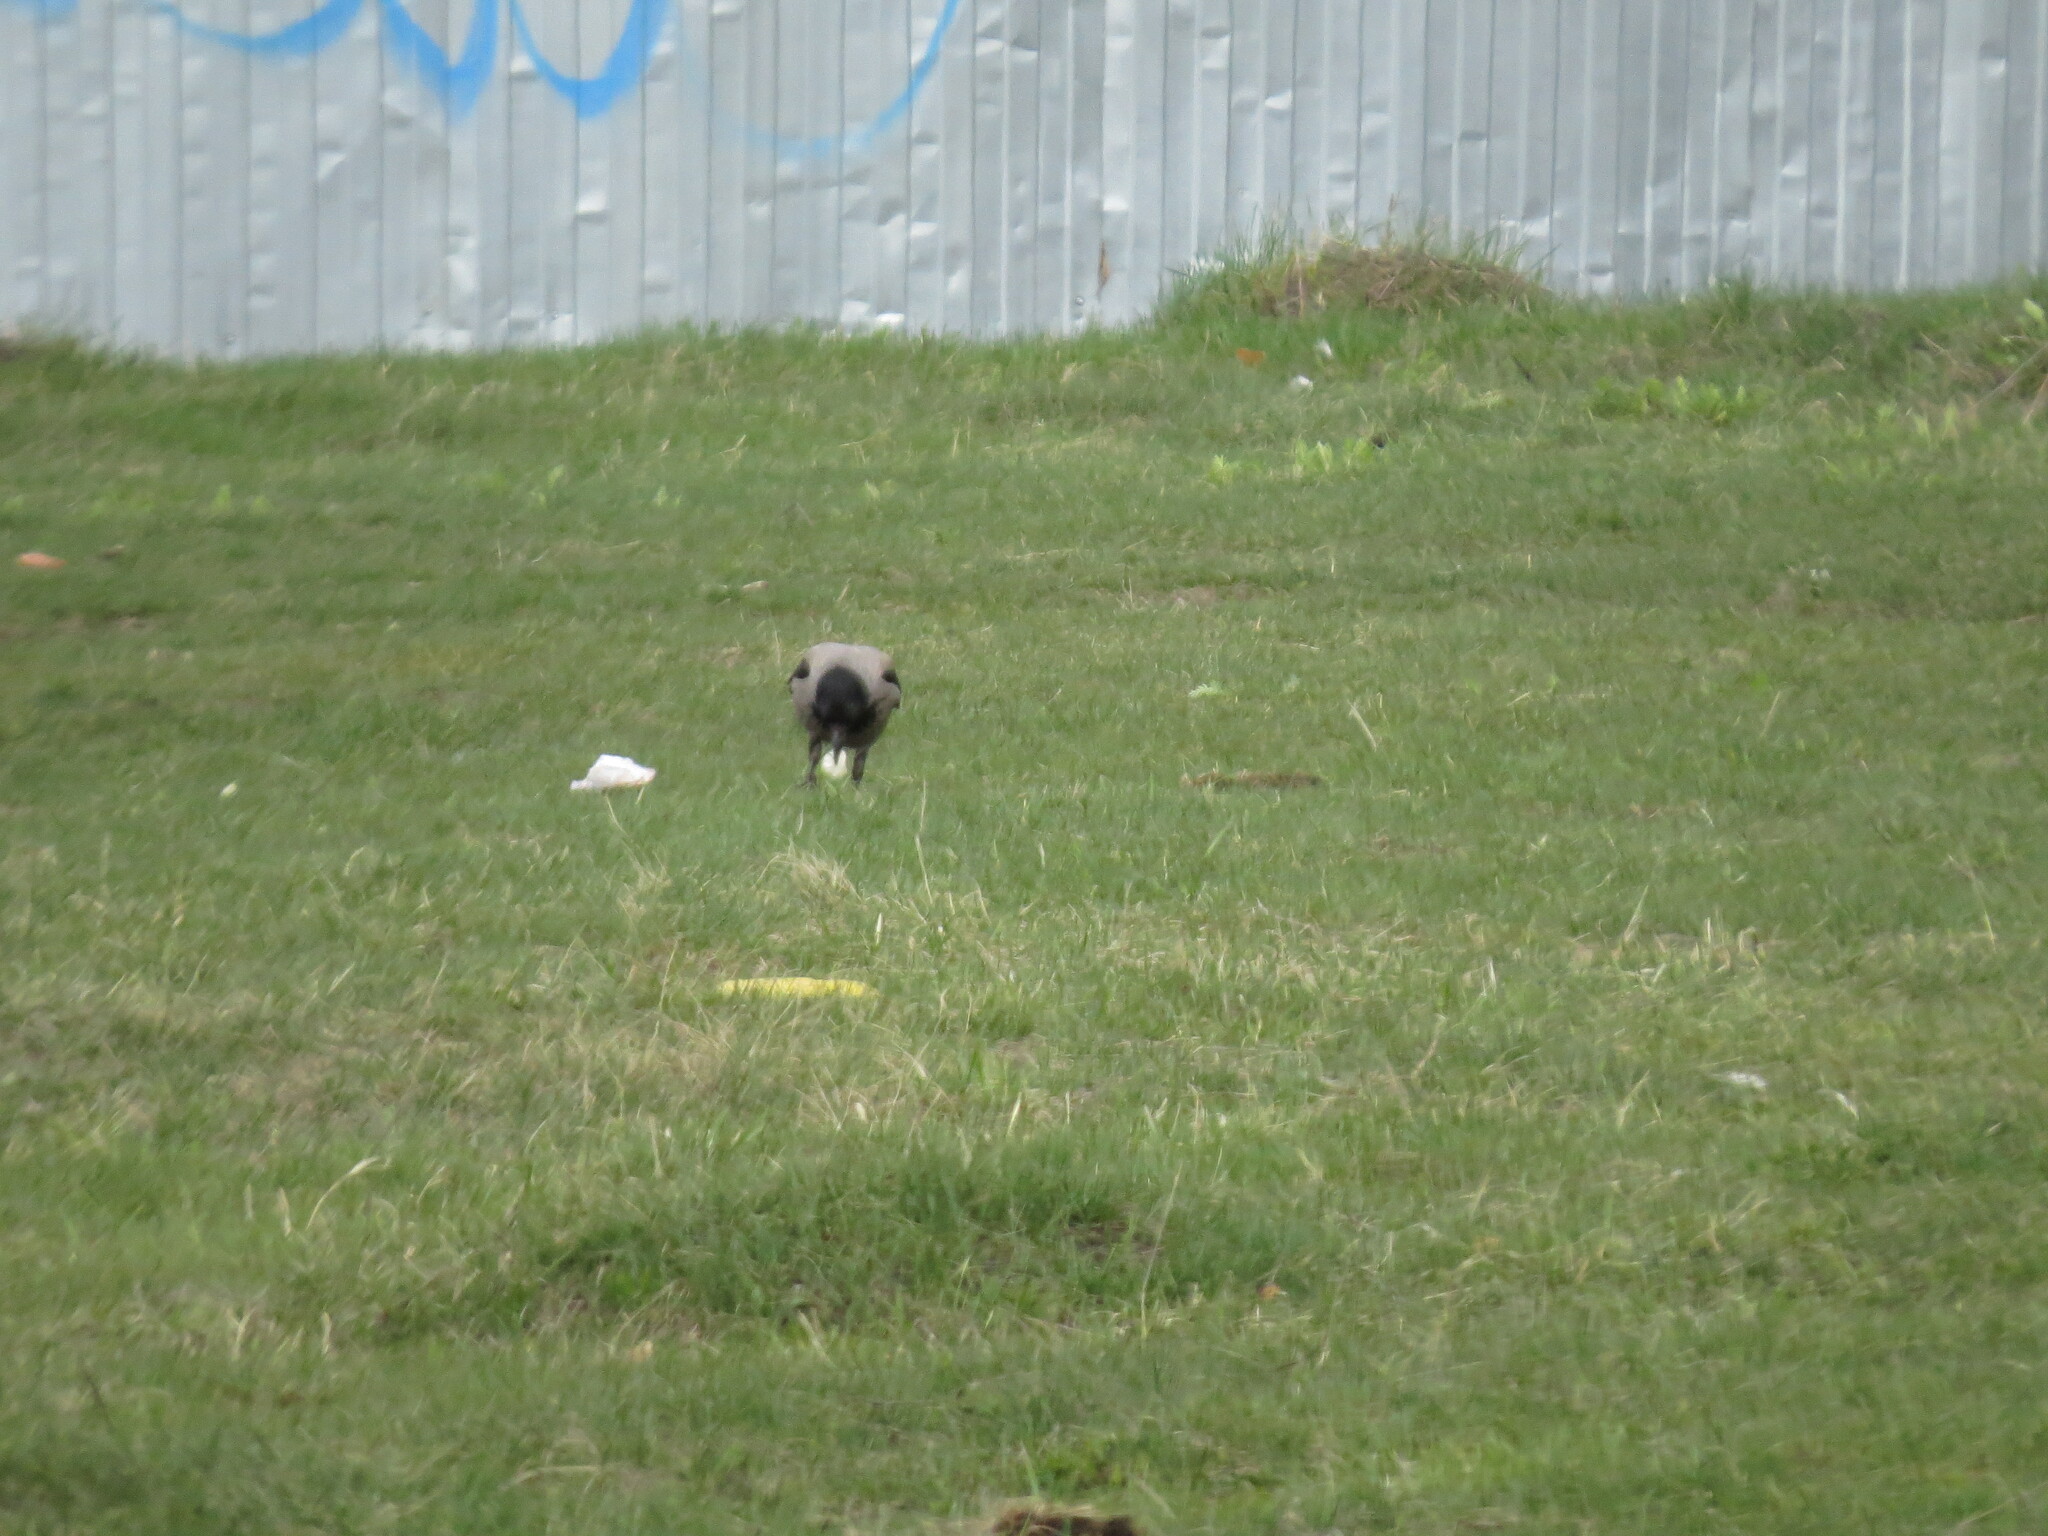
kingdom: Animalia
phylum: Chordata
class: Aves
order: Passeriformes
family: Corvidae
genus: Corvus
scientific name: Corvus cornix
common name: Hooded crow
